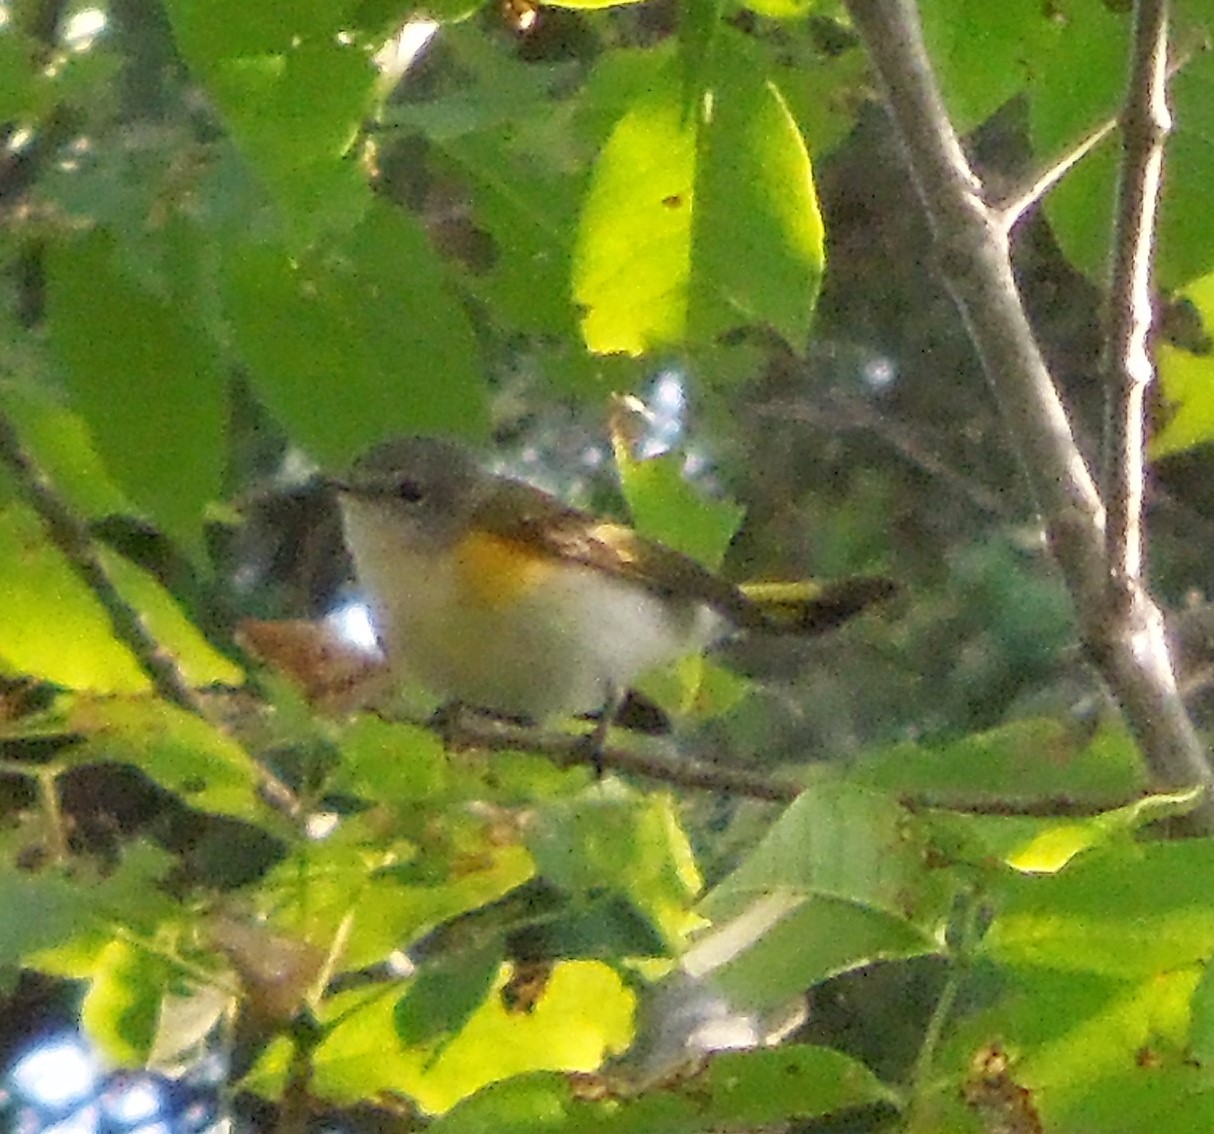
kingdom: Animalia
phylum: Chordata
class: Aves
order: Passeriformes
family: Parulidae
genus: Setophaga
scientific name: Setophaga ruticilla
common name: American redstart
